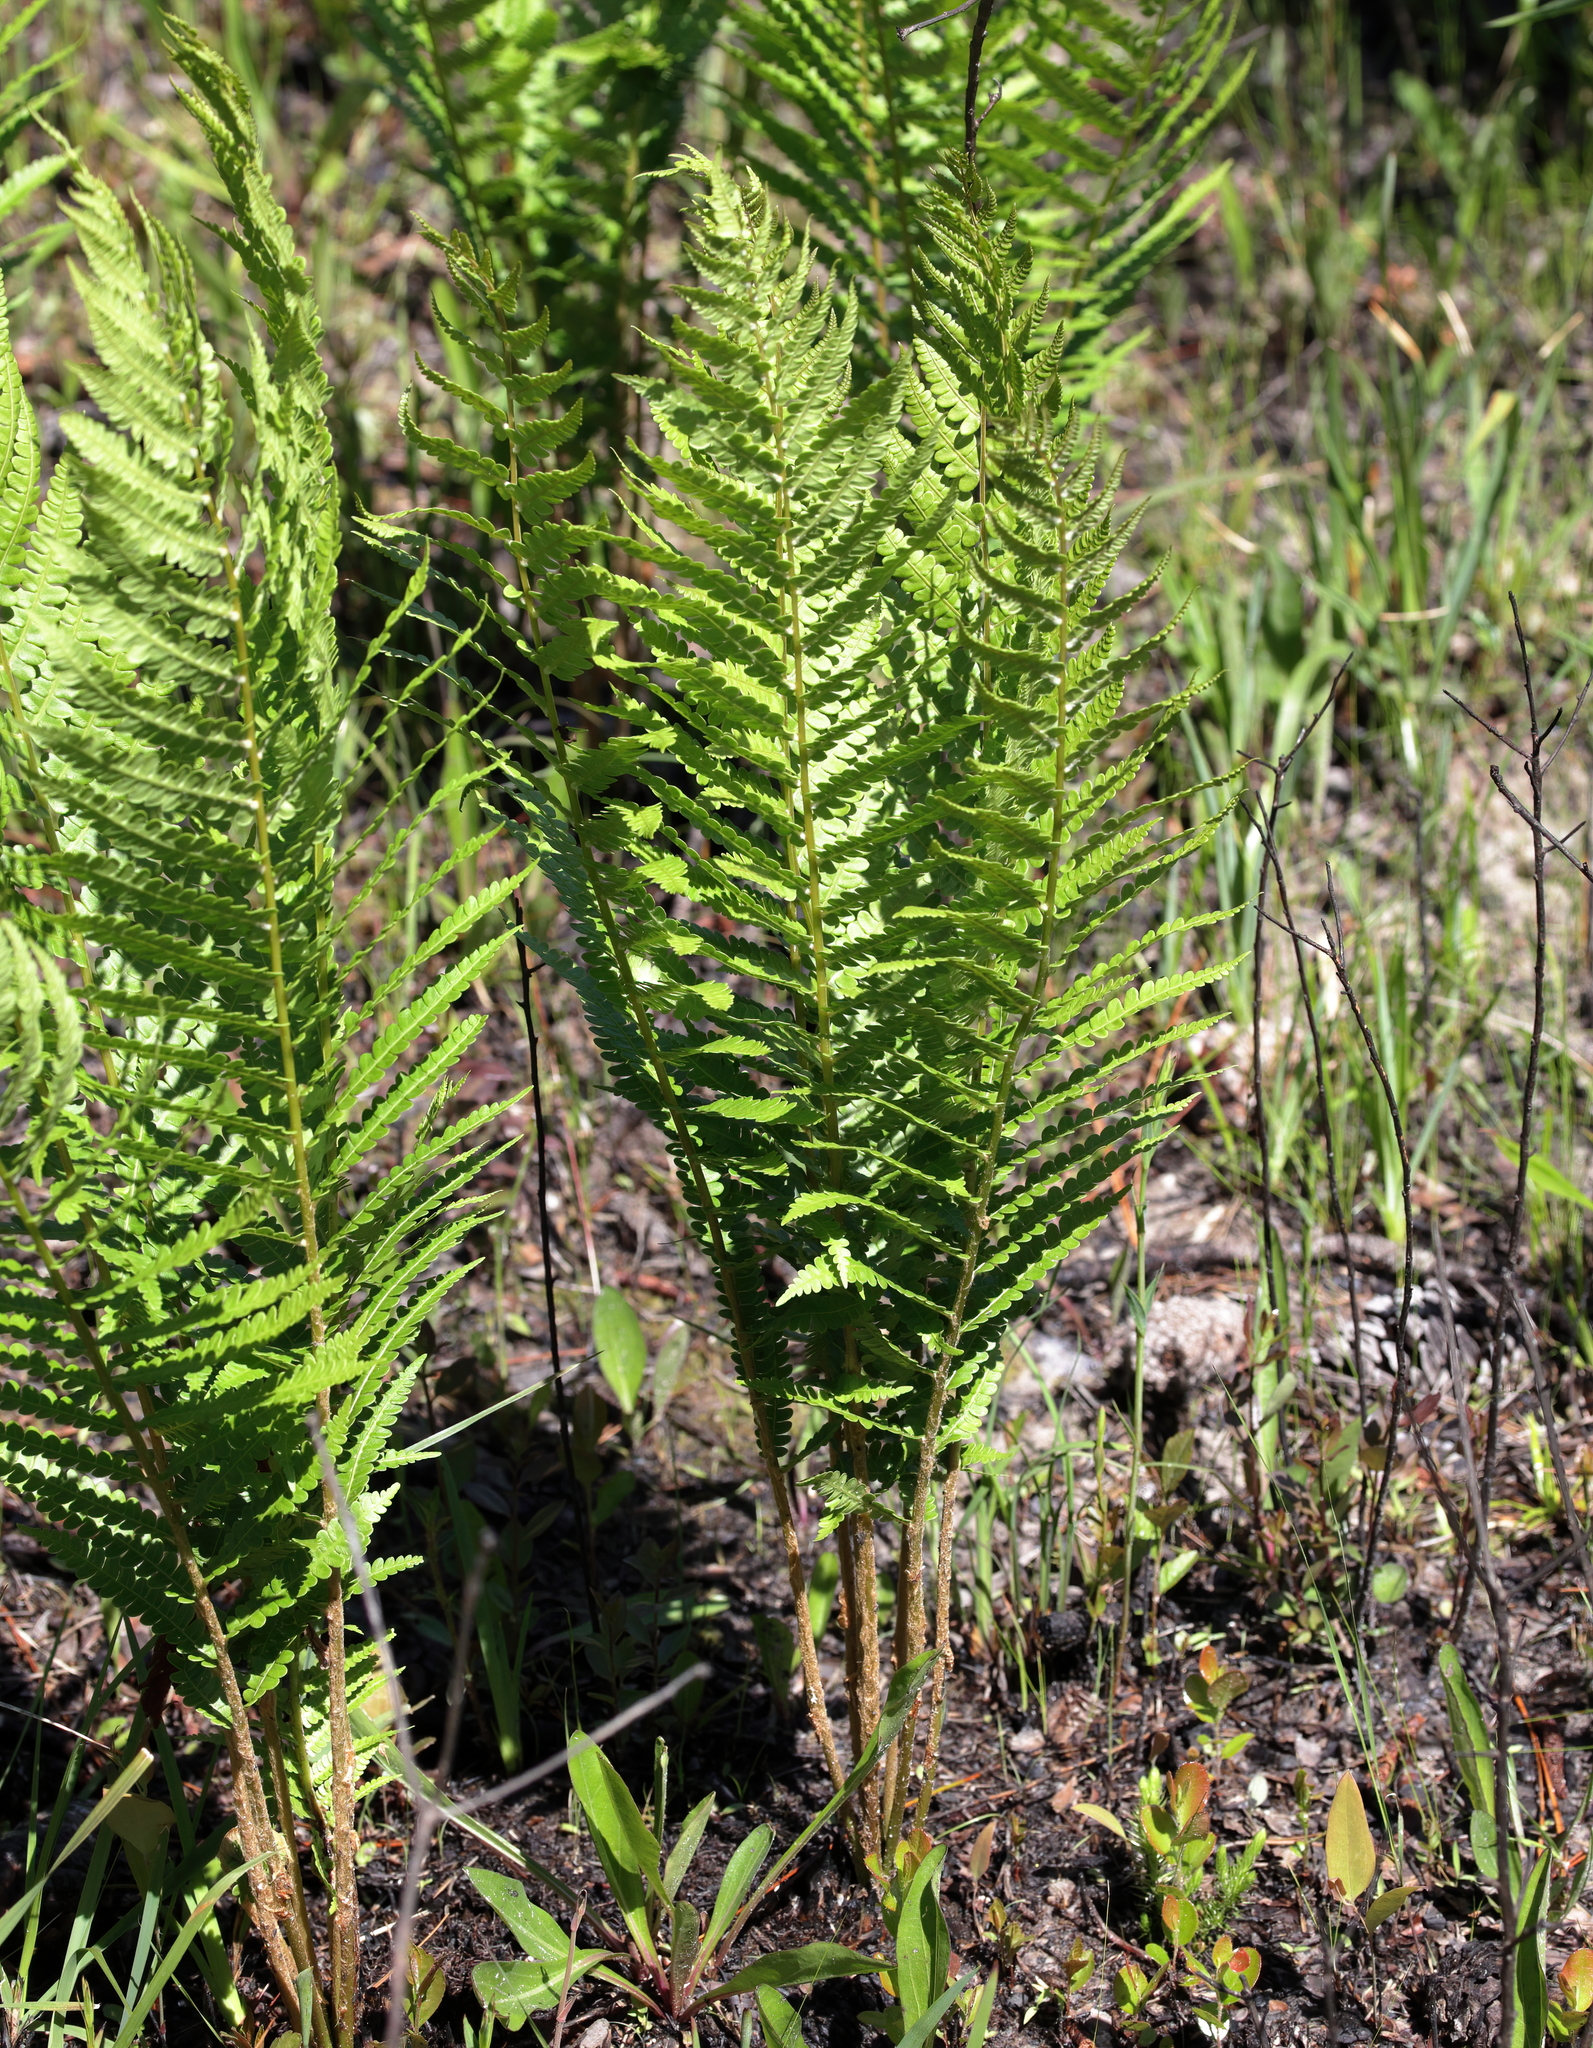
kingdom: Plantae
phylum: Tracheophyta
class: Polypodiopsida
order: Osmundales
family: Osmundaceae
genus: Osmundastrum
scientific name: Osmundastrum cinnamomeum
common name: Cinnamon fern
